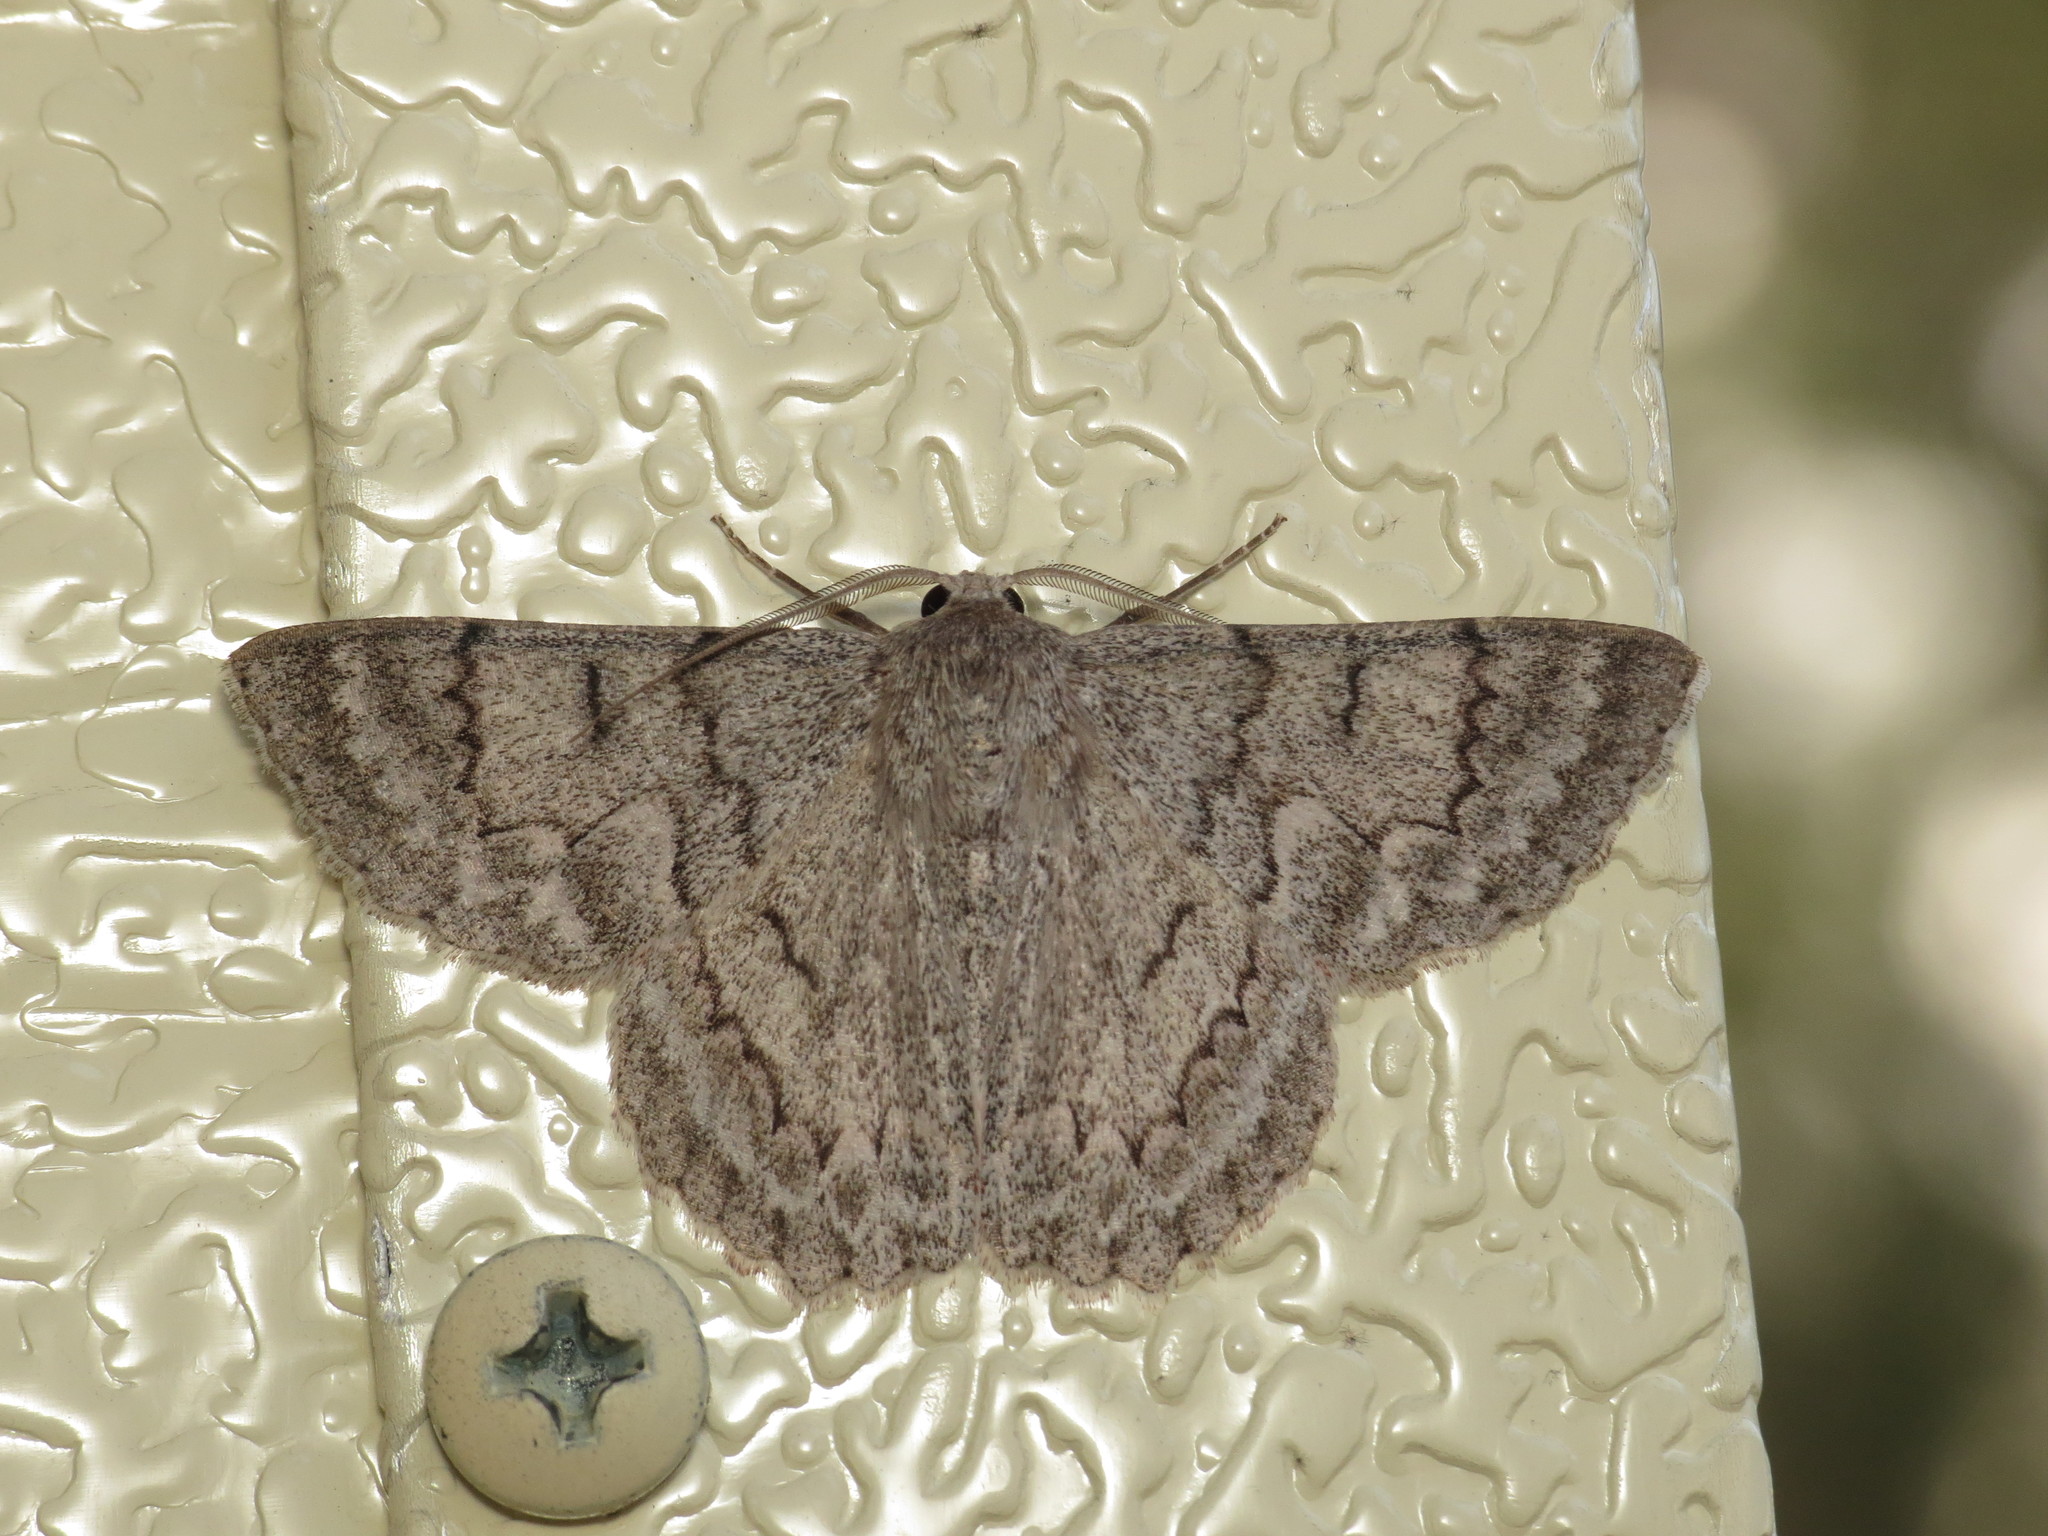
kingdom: Animalia
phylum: Arthropoda
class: Insecta
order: Lepidoptera
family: Geometridae
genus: Crypsiphona
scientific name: Crypsiphona ocultaria
